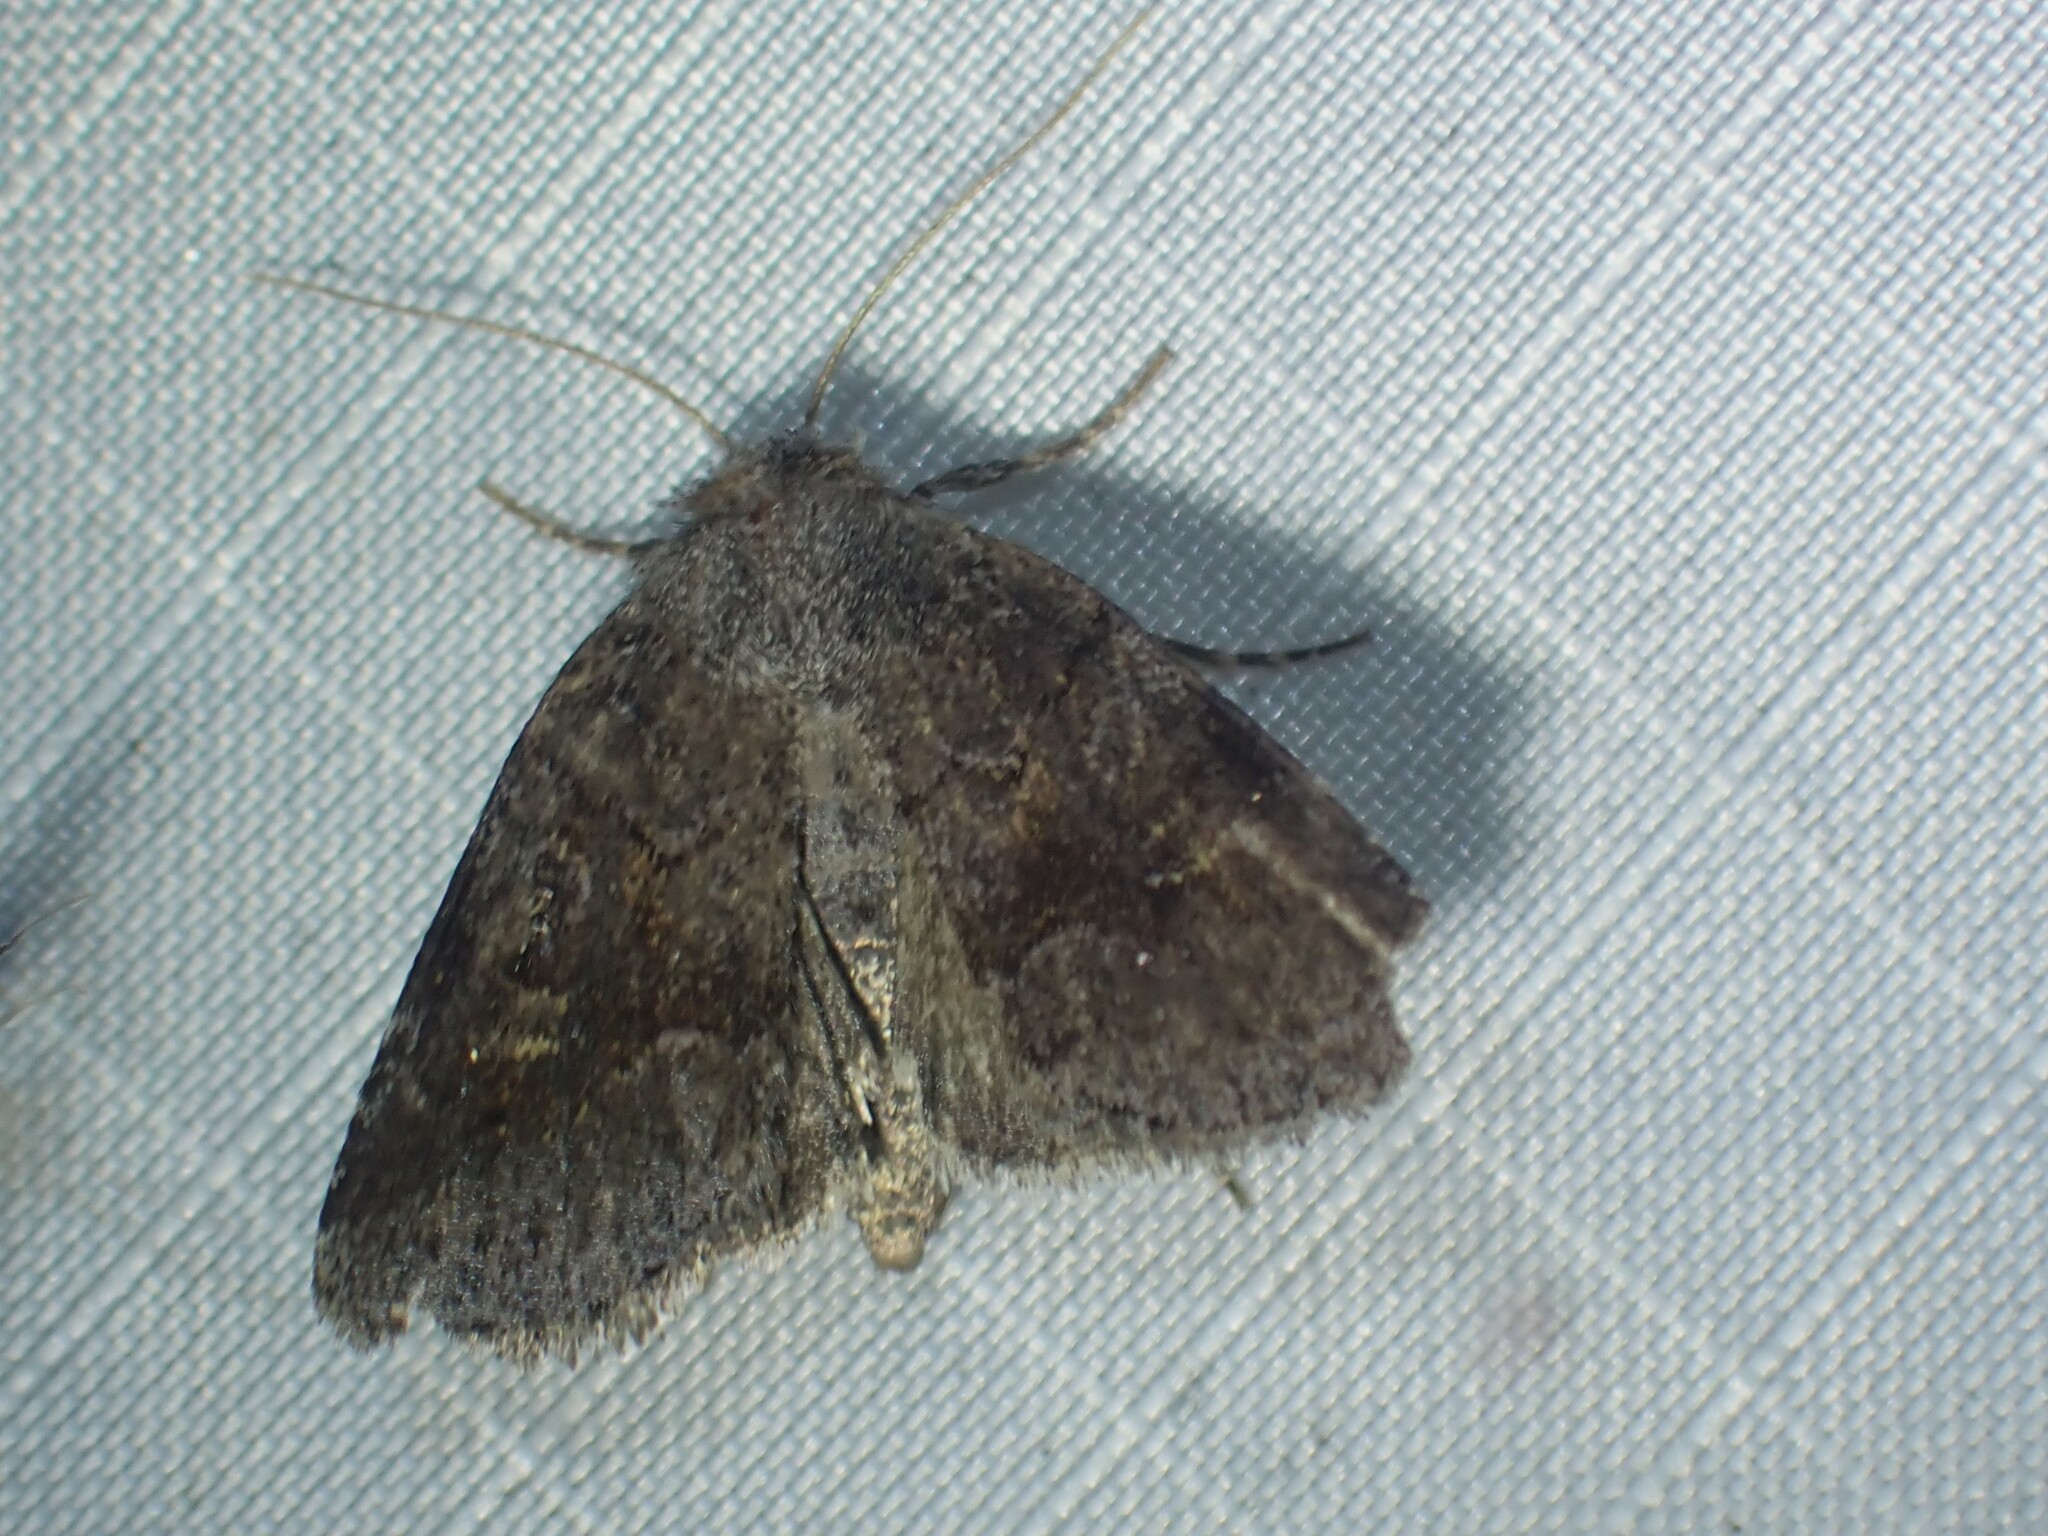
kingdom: Animalia
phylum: Arthropoda
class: Insecta
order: Lepidoptera
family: Noctuidae
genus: Oligia
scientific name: Oligia minuscula
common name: Small brocade
